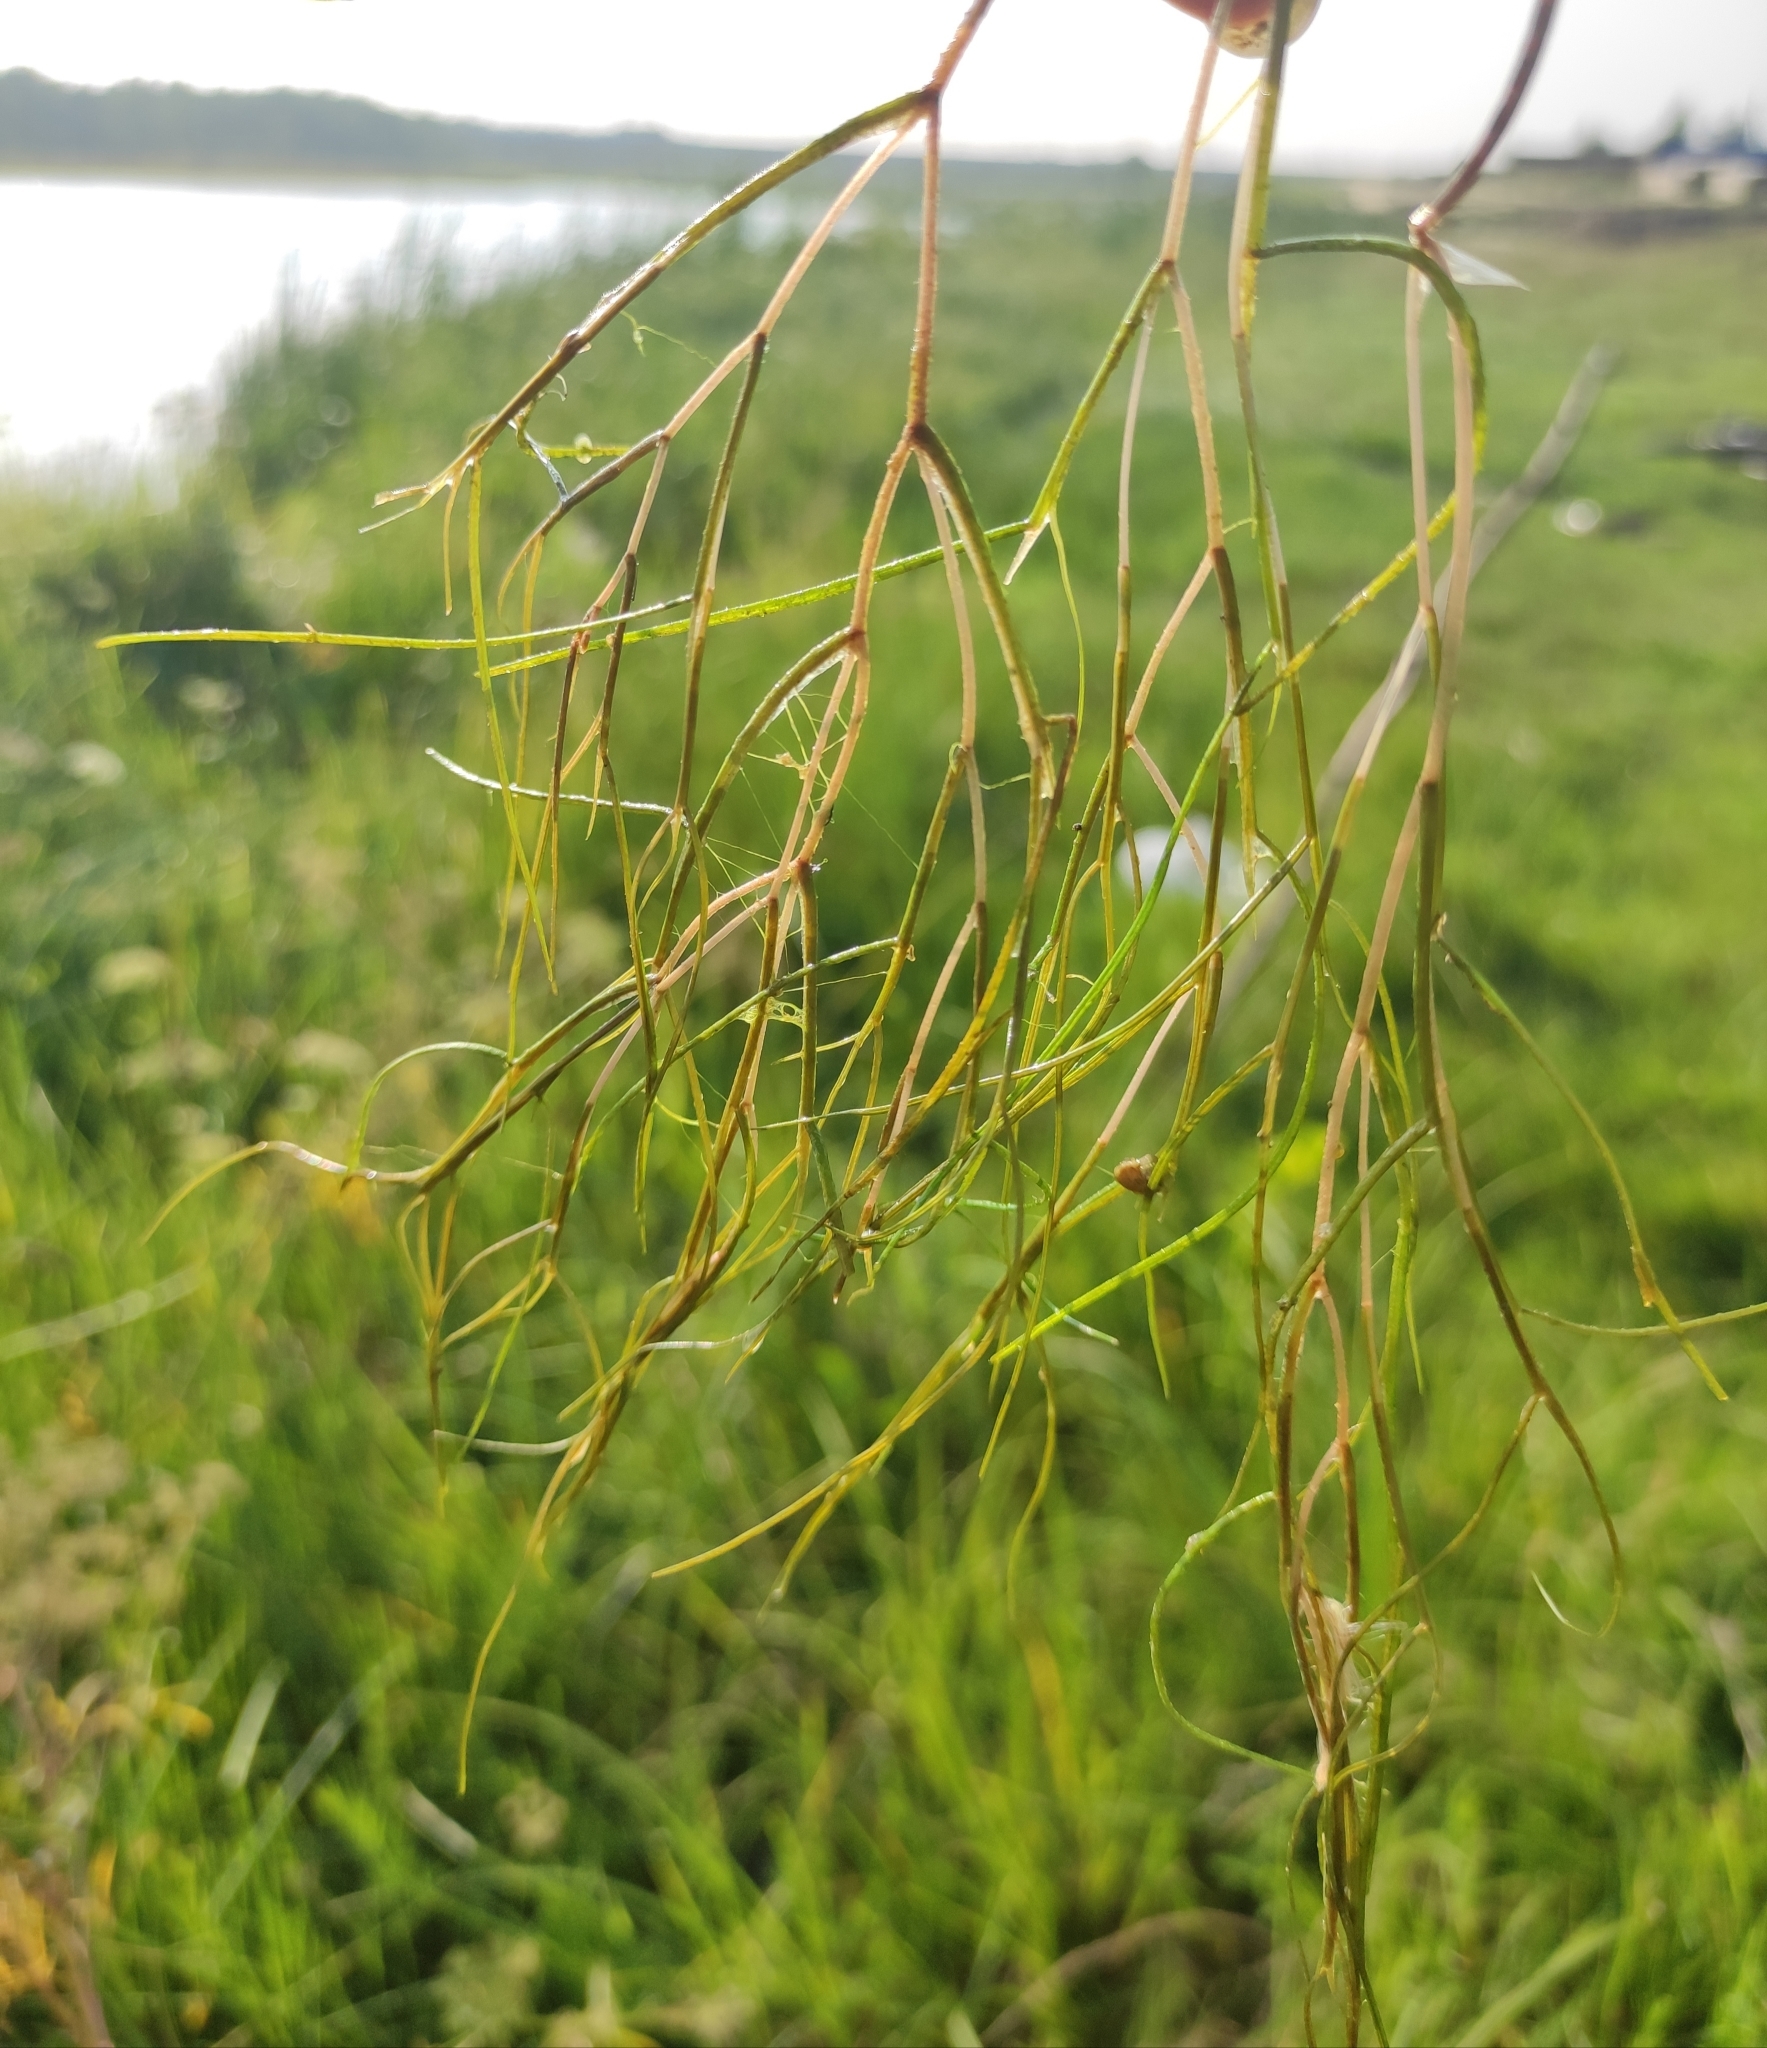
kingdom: Plantae
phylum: Tracheophyta
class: Liliopsida
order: Alismatales
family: Potamogetonaceae
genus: Stuckenia
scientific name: Stuckenia pectinata
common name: Sago pondweed
